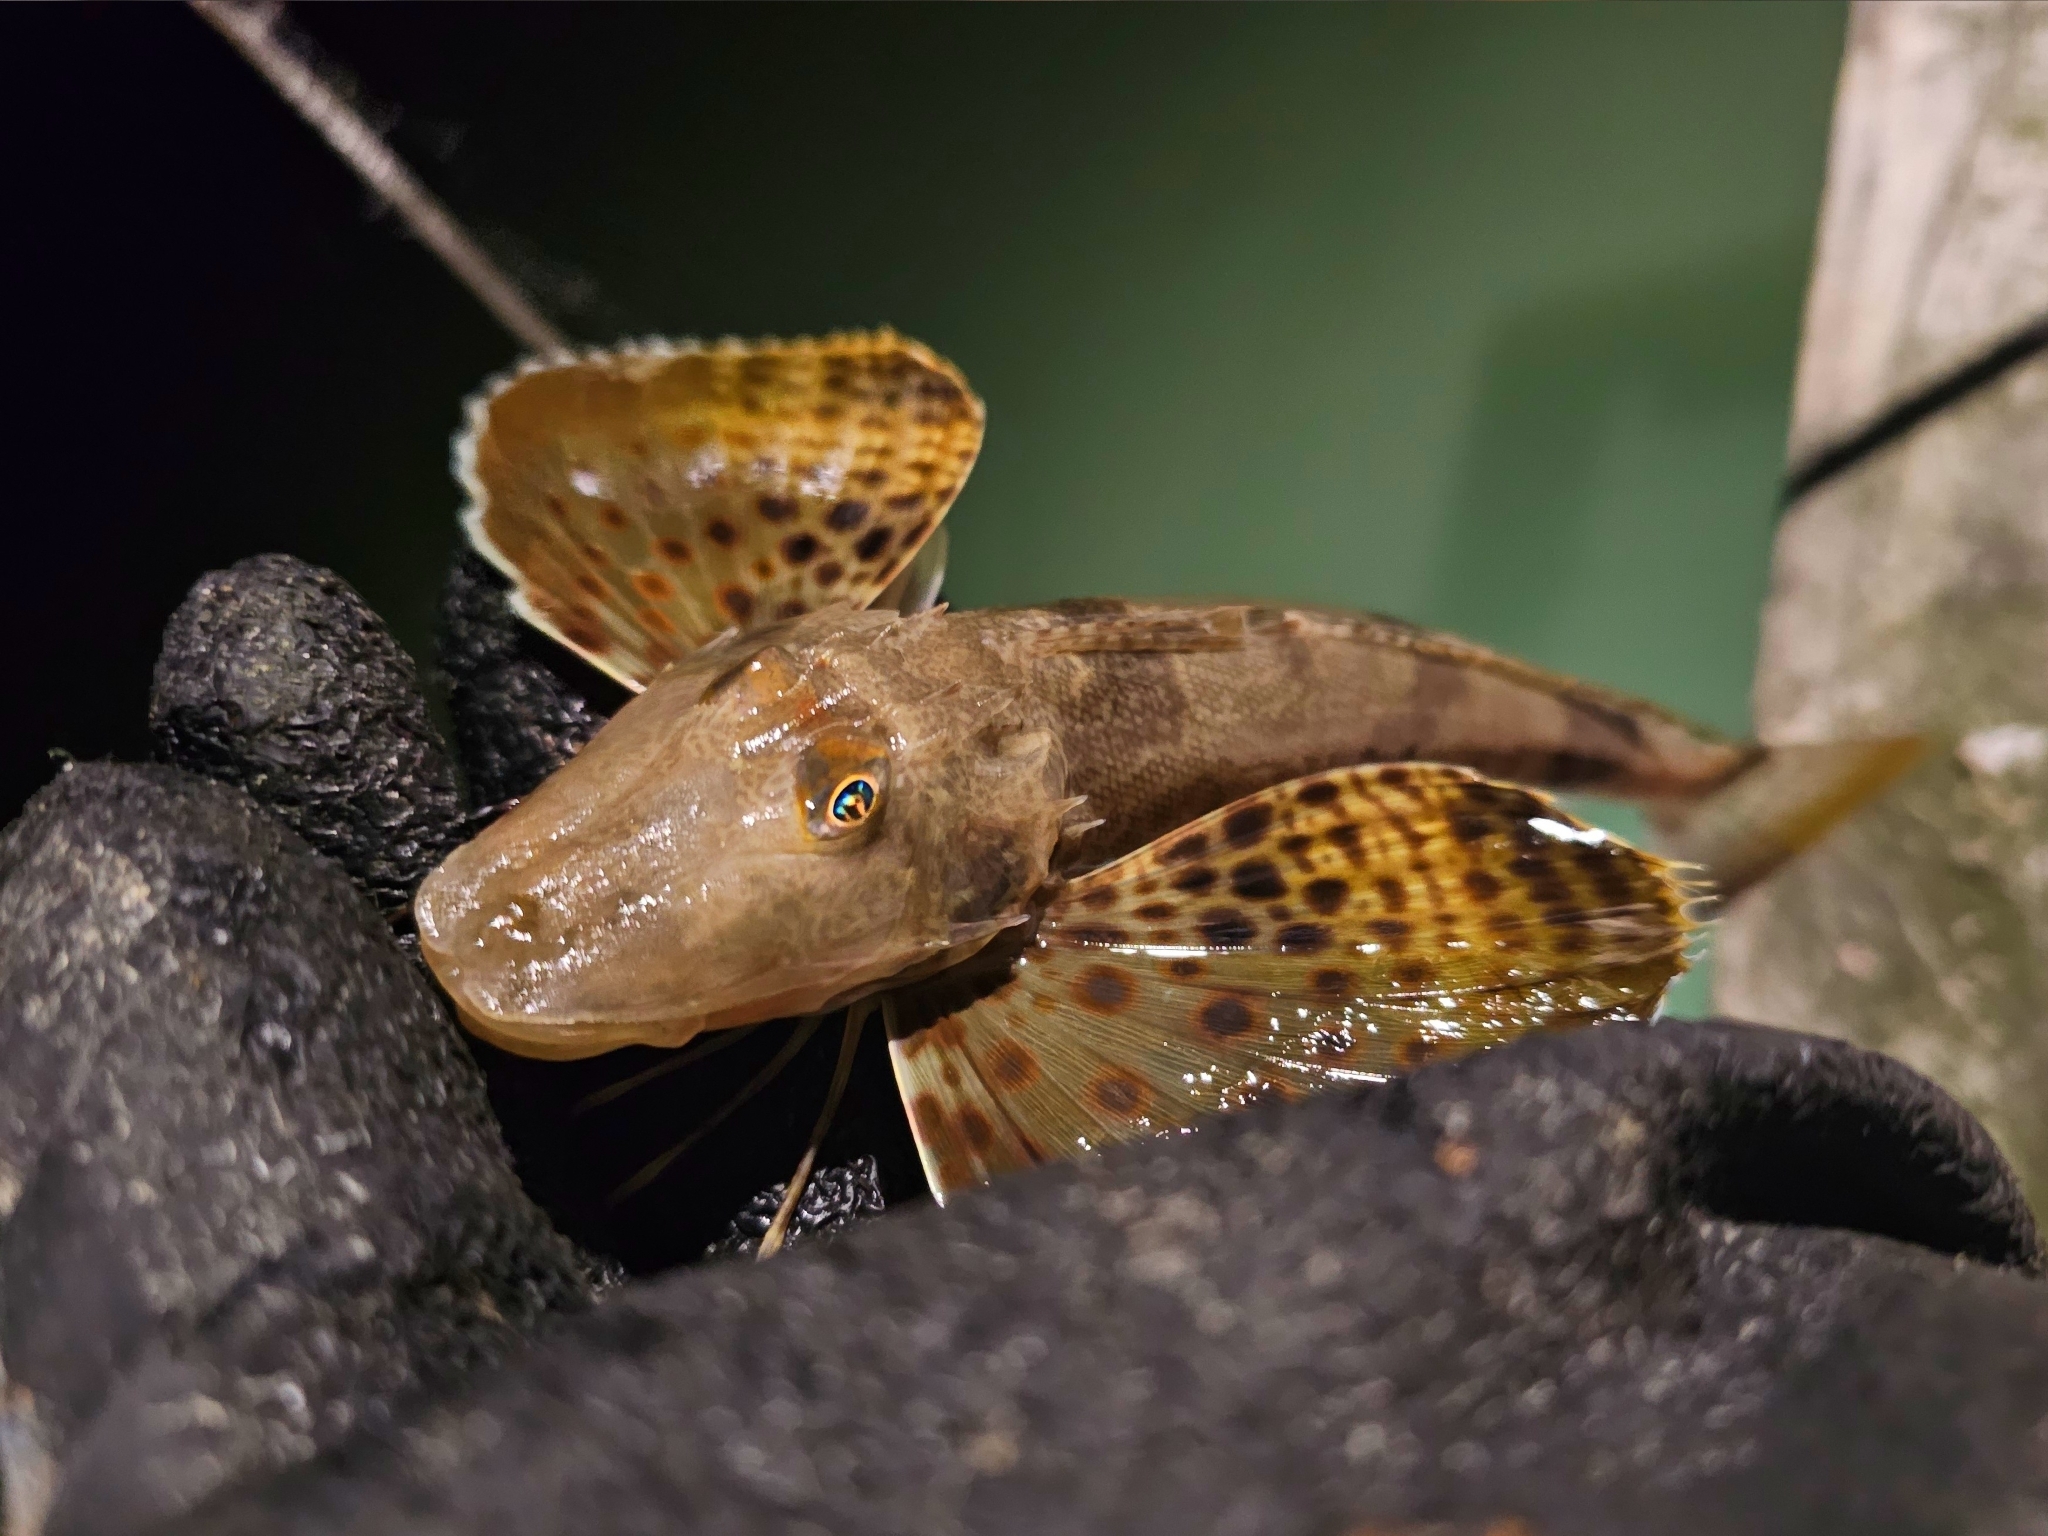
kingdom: Animalia
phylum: Chordata
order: Scorpaeniformes
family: Triglidae
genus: Prionotus
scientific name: Prionotus scitulus
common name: Leopard searobin
